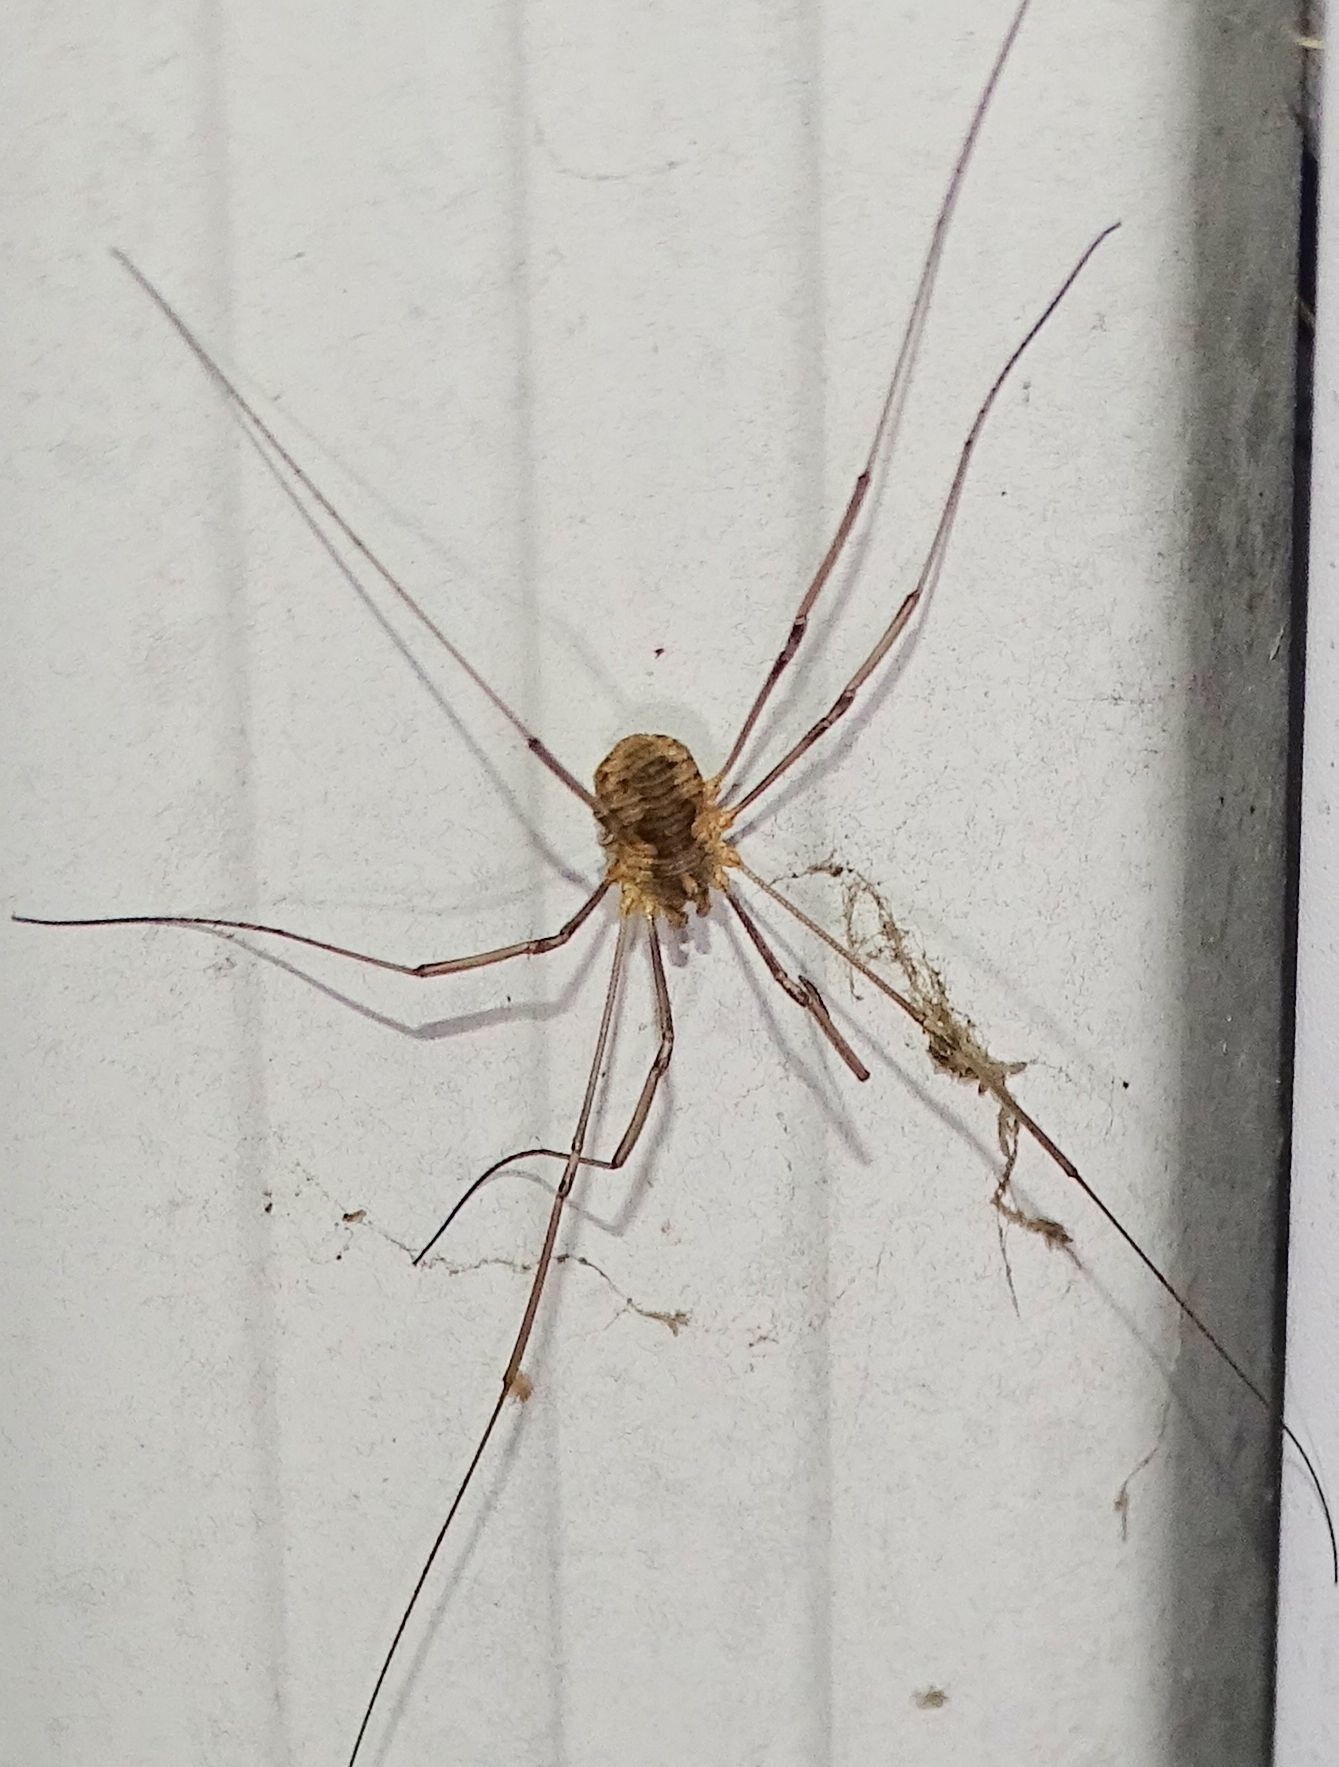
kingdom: Animalia
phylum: Arthropoda
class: Arachnida
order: Opiliones
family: Phalangiidae
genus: Phalangium
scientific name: Phalangium opilio
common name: Daddy longleg
